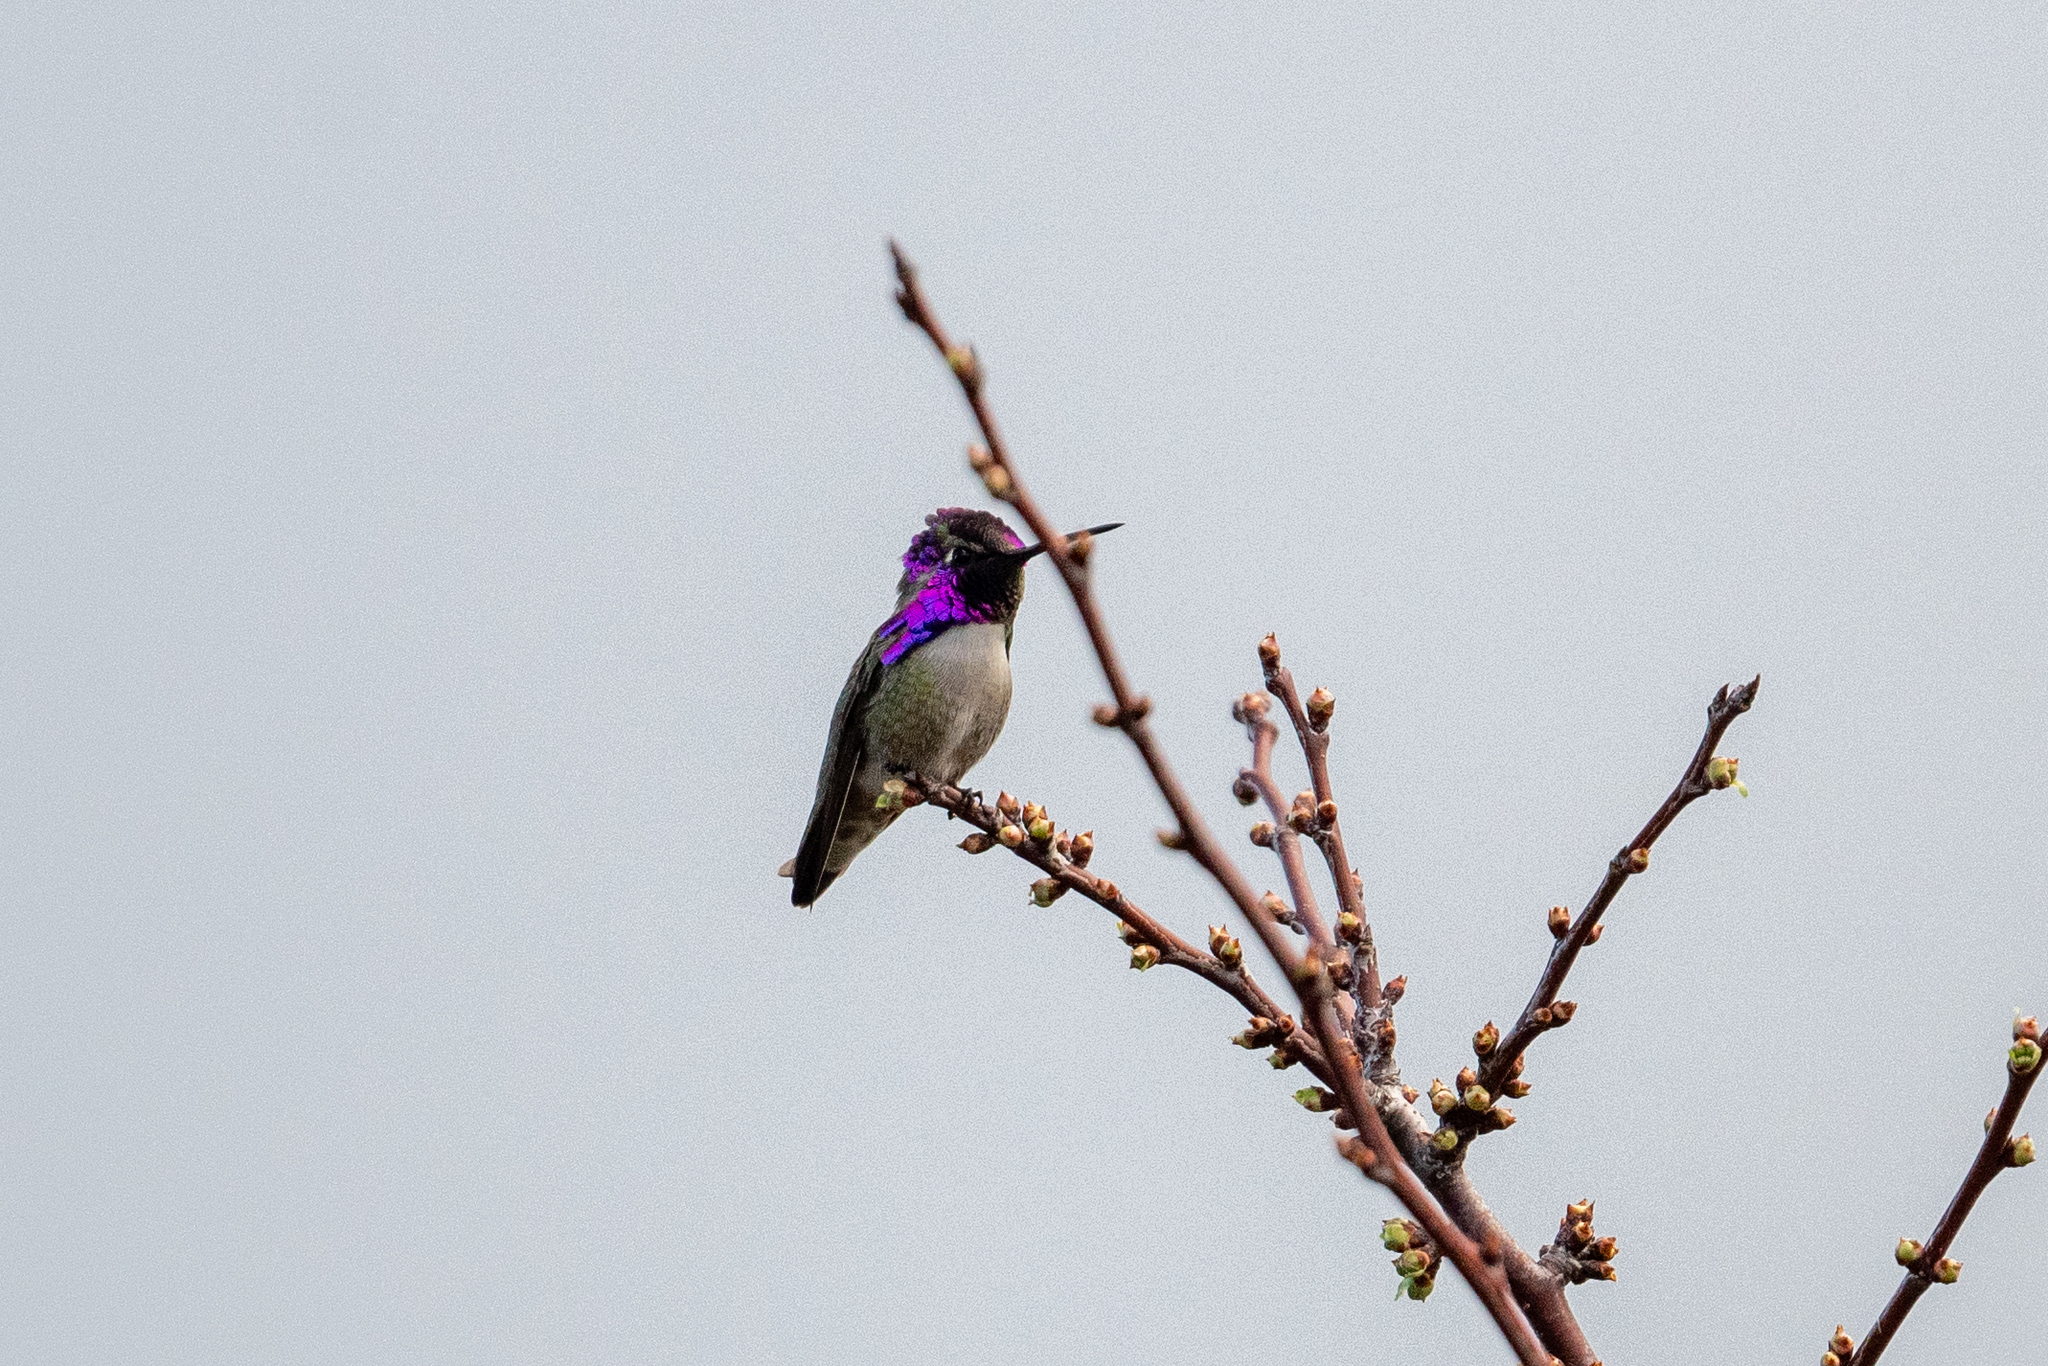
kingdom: Animalia
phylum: Chordata
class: Aves
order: Apodiformes
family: Trochilidae
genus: Calypte
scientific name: Calypte costae
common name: Costa's hummingbird
